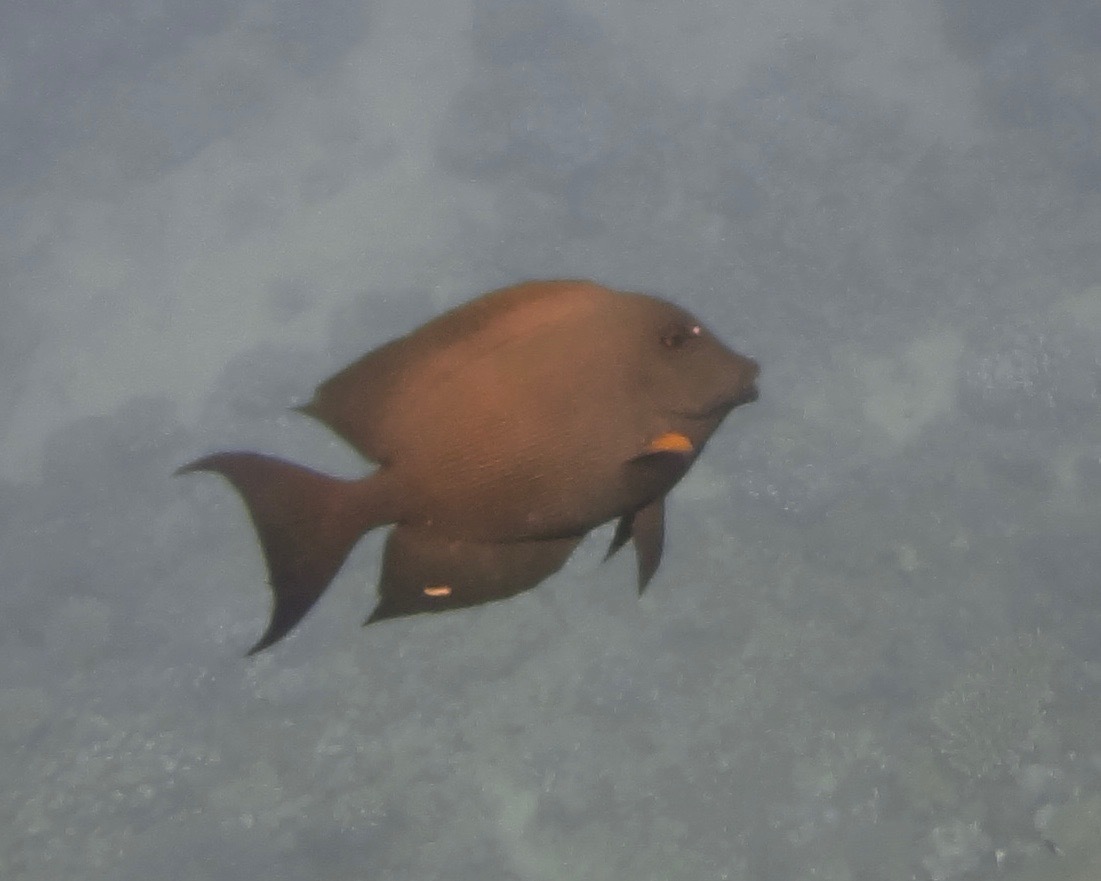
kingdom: Animalia
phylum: Chordata
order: Perciformes
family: Acanthuridae
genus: Ctenochaetus
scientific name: Ctenochaetus striatus
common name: Bristle-toothed surgeonfish
